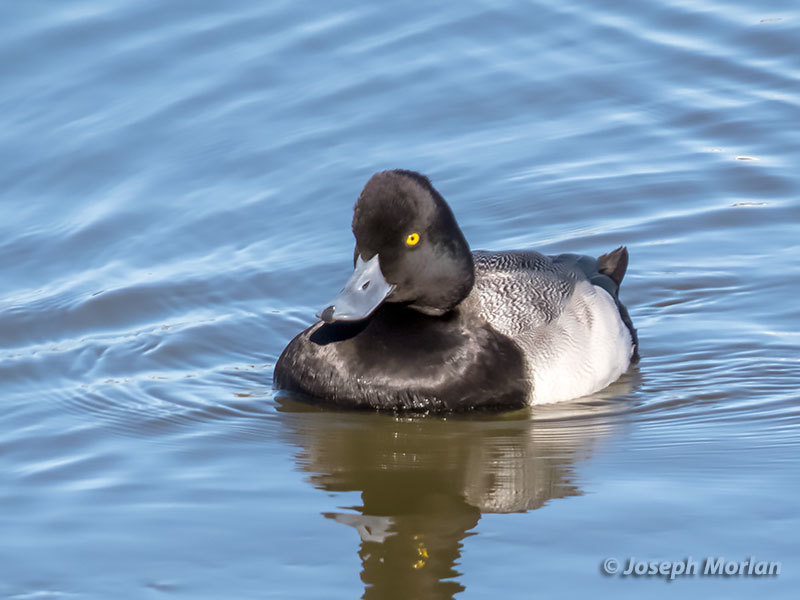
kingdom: Animalia
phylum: Chordata
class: Aves
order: Anseriformes
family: Anatidae
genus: Aythya
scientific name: Aythya affinis
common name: Lesser scaup
